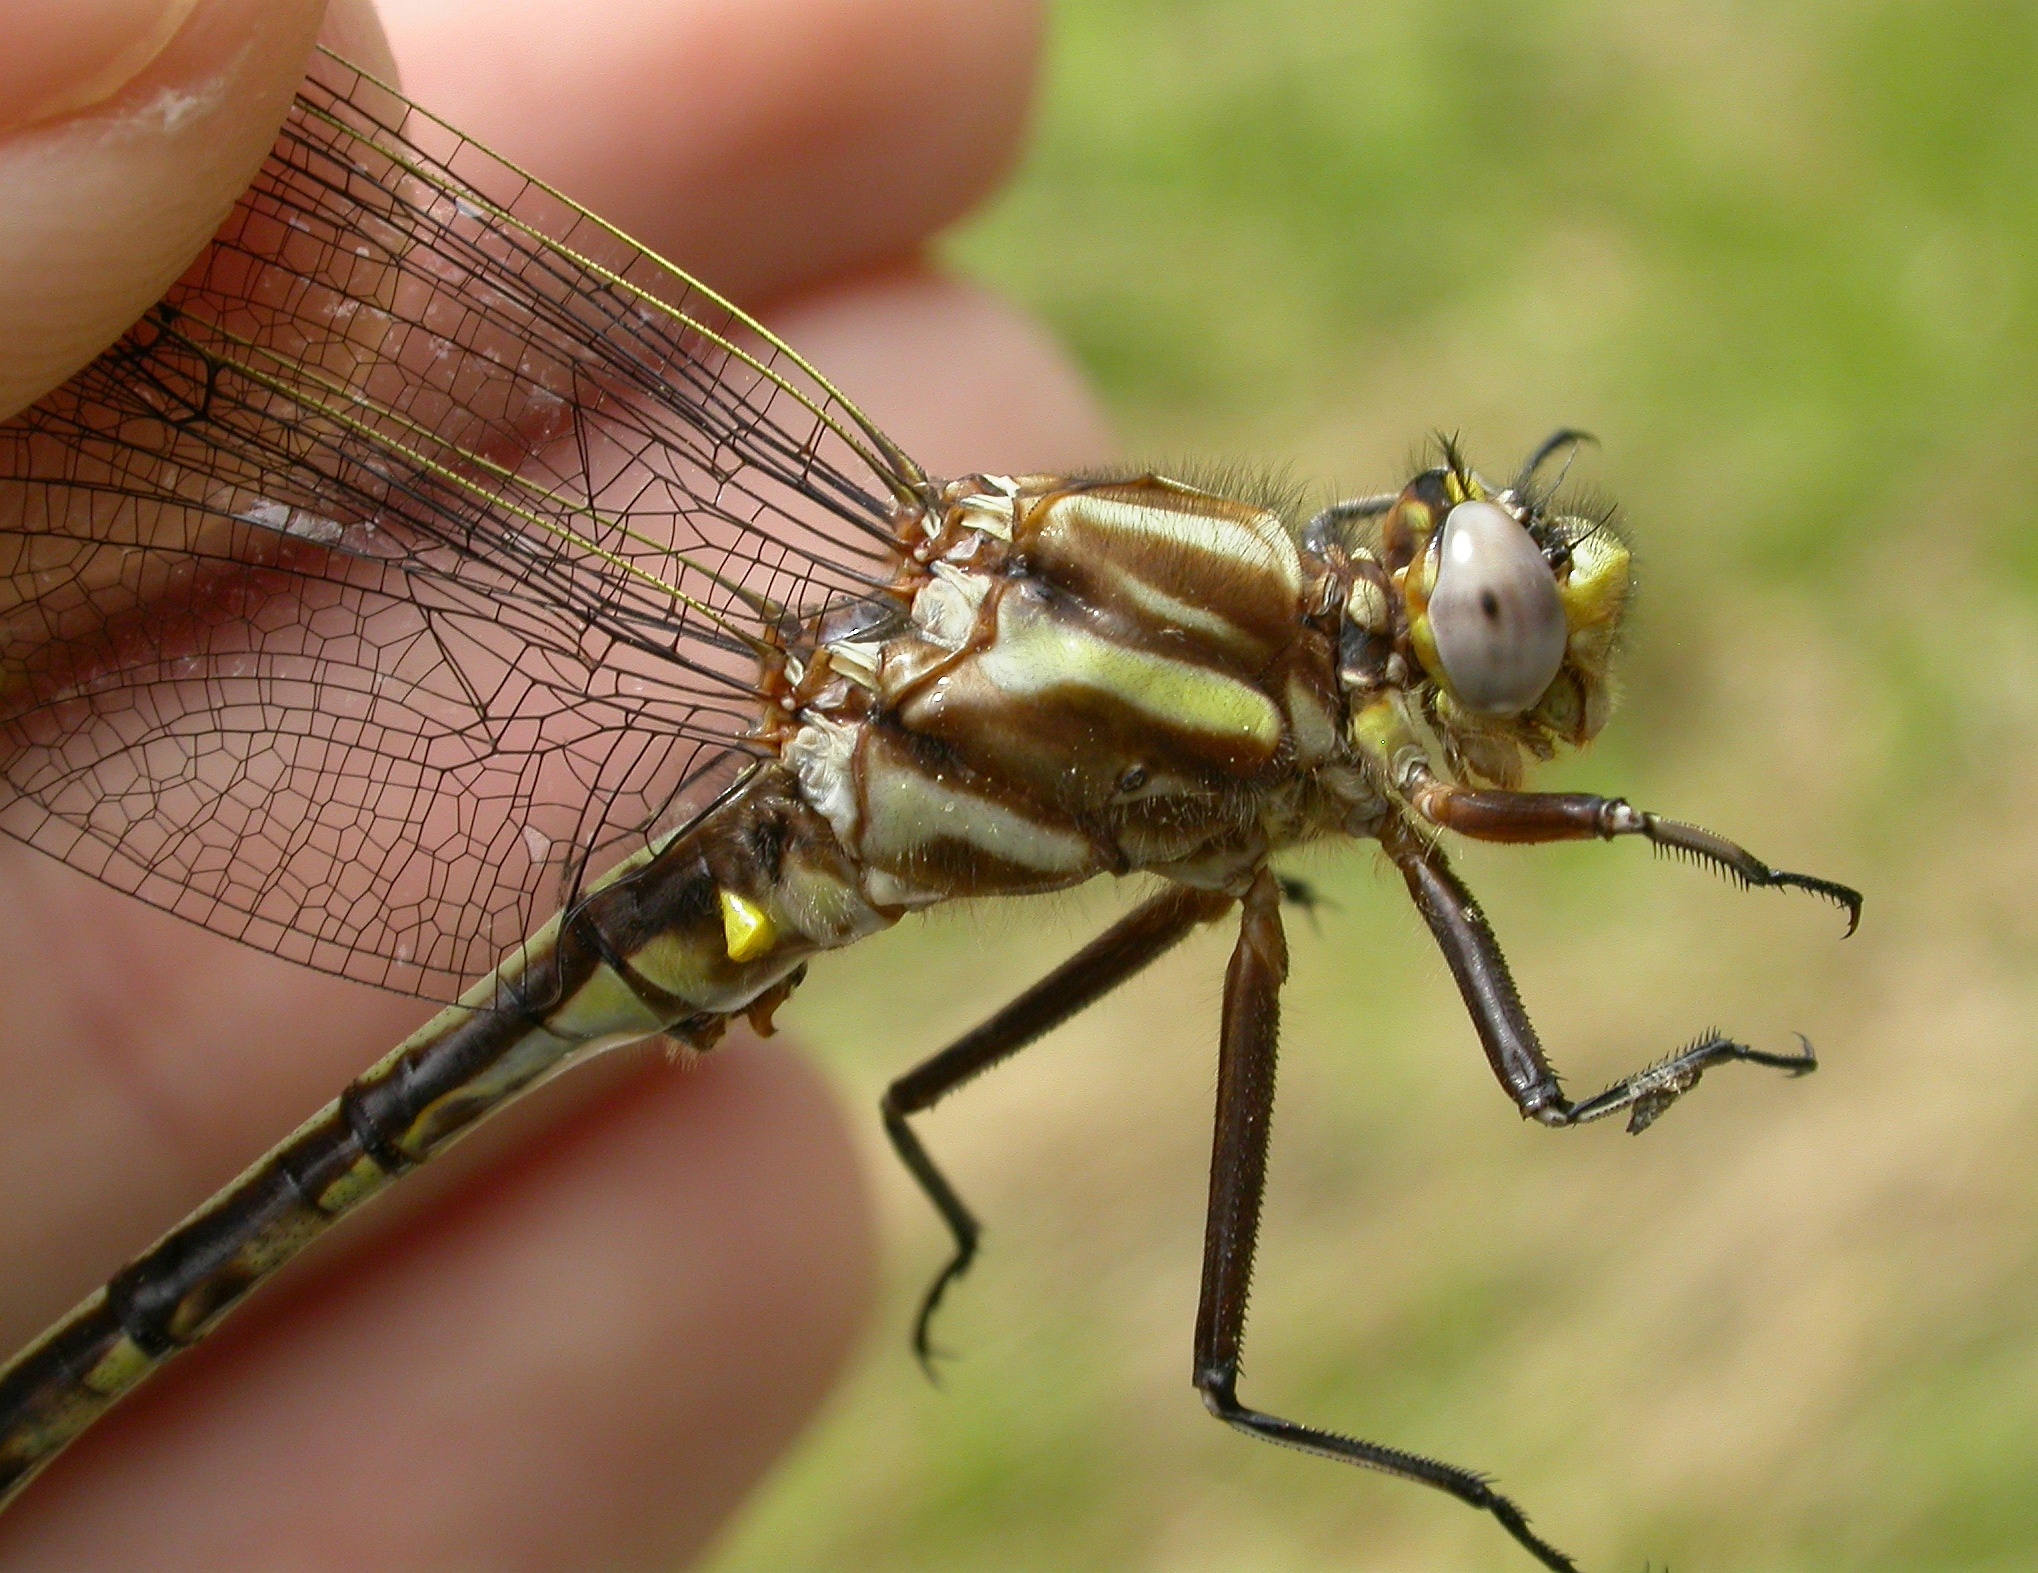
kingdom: Animalia
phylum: Arthropoda
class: Insecta
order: Odonata
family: Gomphidae
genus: Phanogomphus
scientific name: Phanogomphus spicatus
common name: Dusky clubtail
